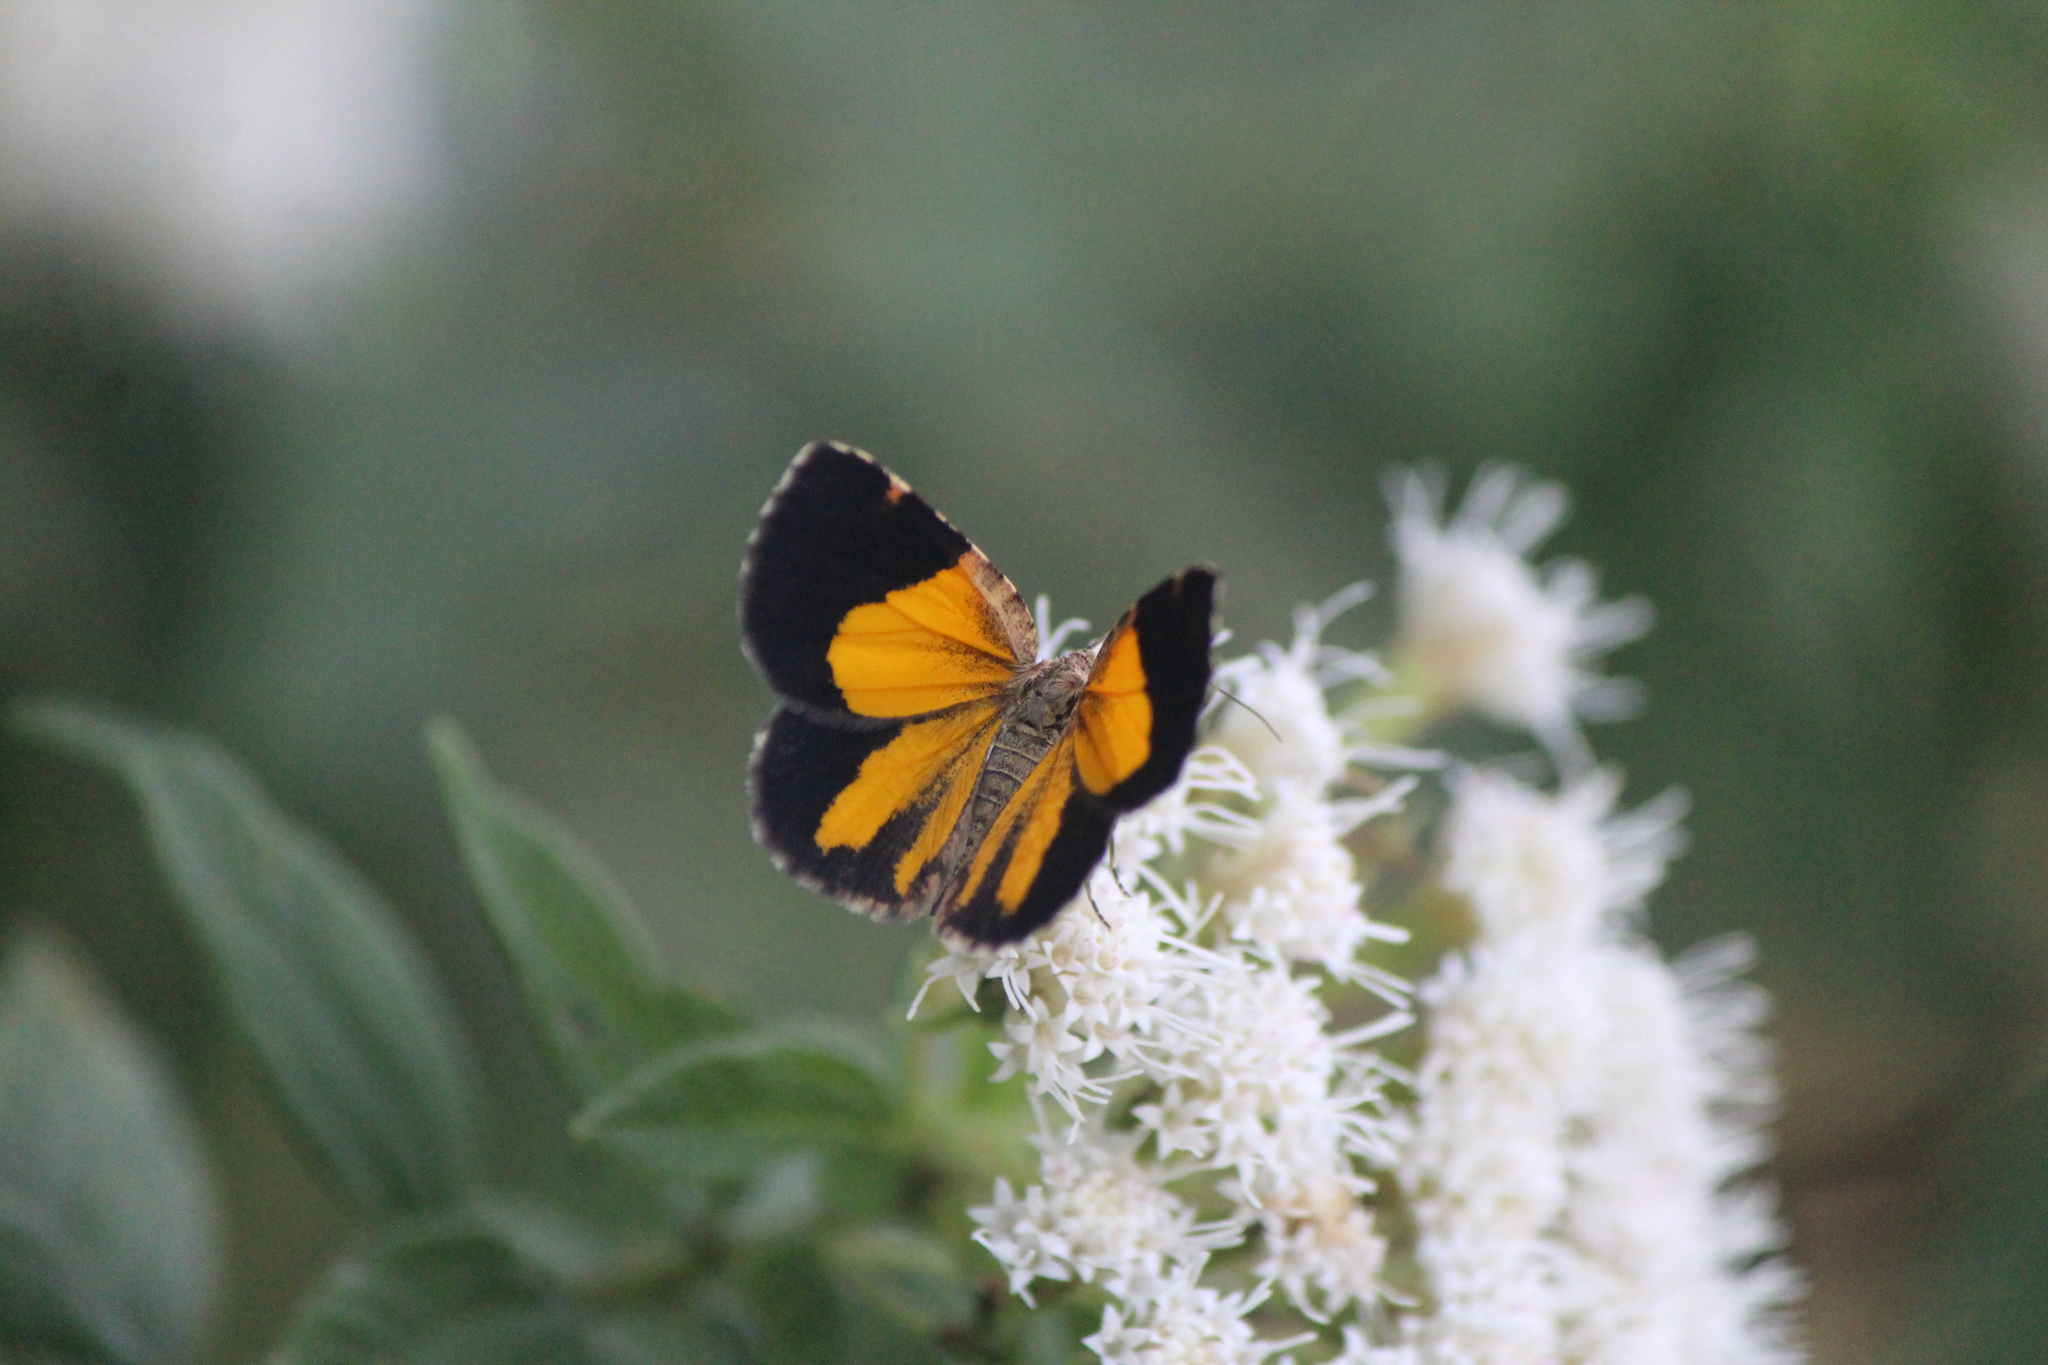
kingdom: Animalia
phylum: Arthropoda
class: Insecta
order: Lepidoptera
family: Geometridae
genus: Heterusia
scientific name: Heterusia atalantata
